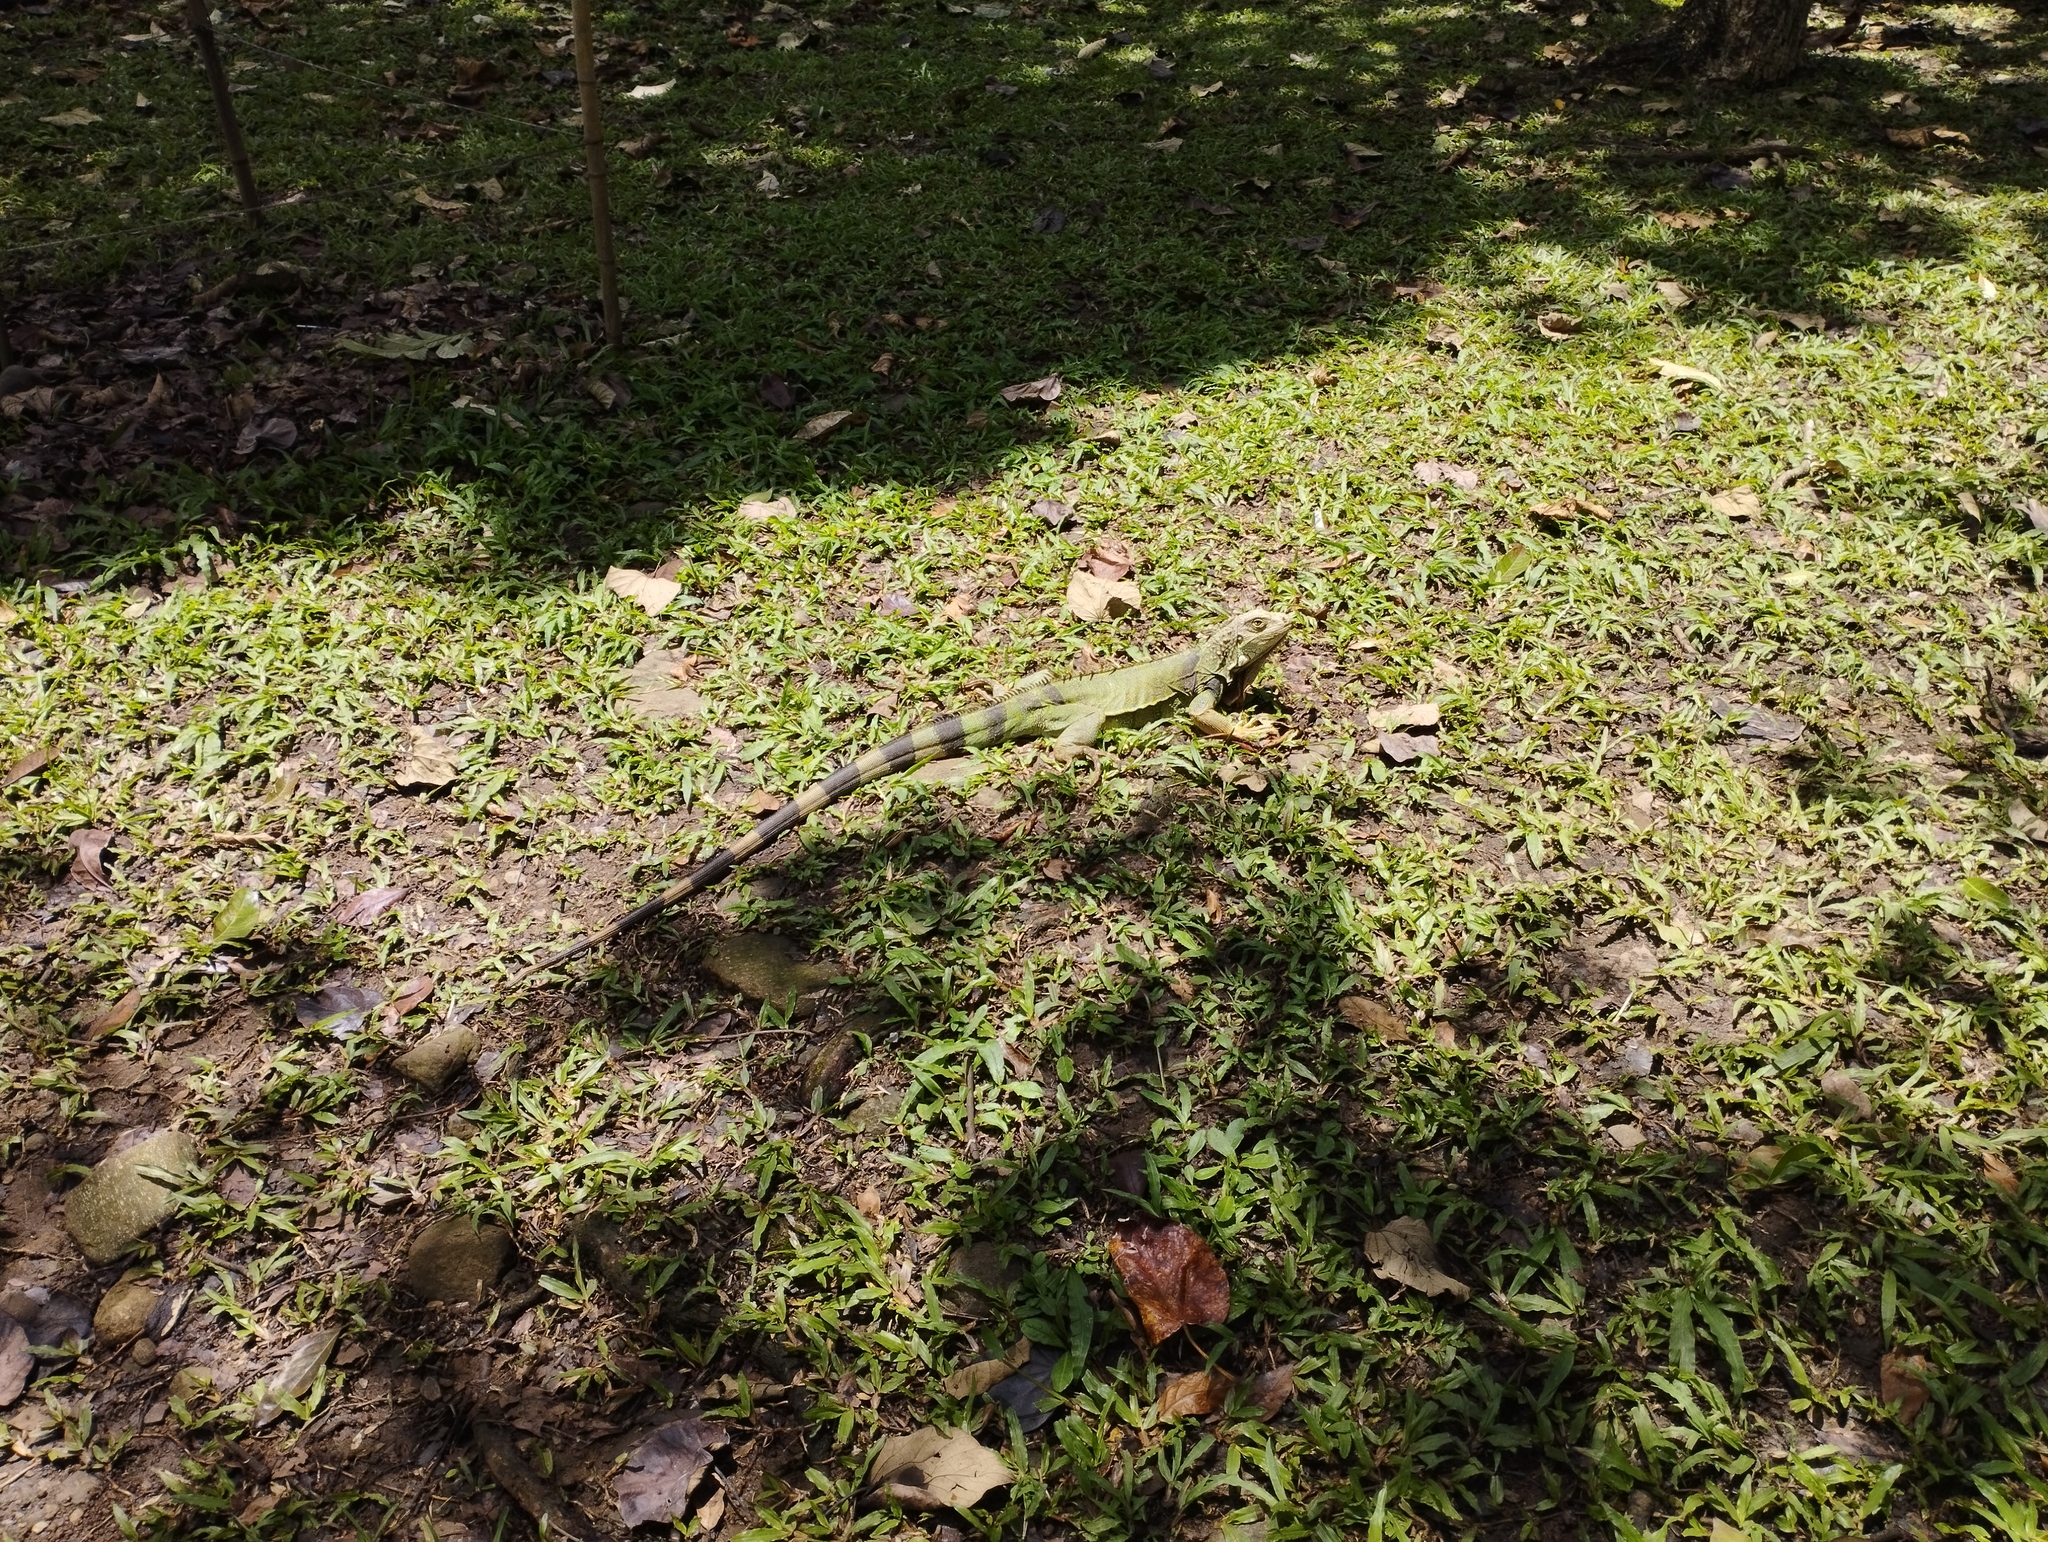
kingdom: Animalia
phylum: Chordata
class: Squamata
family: Iguanidae
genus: Iguana
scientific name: Iguana iguana
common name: Green iguana
